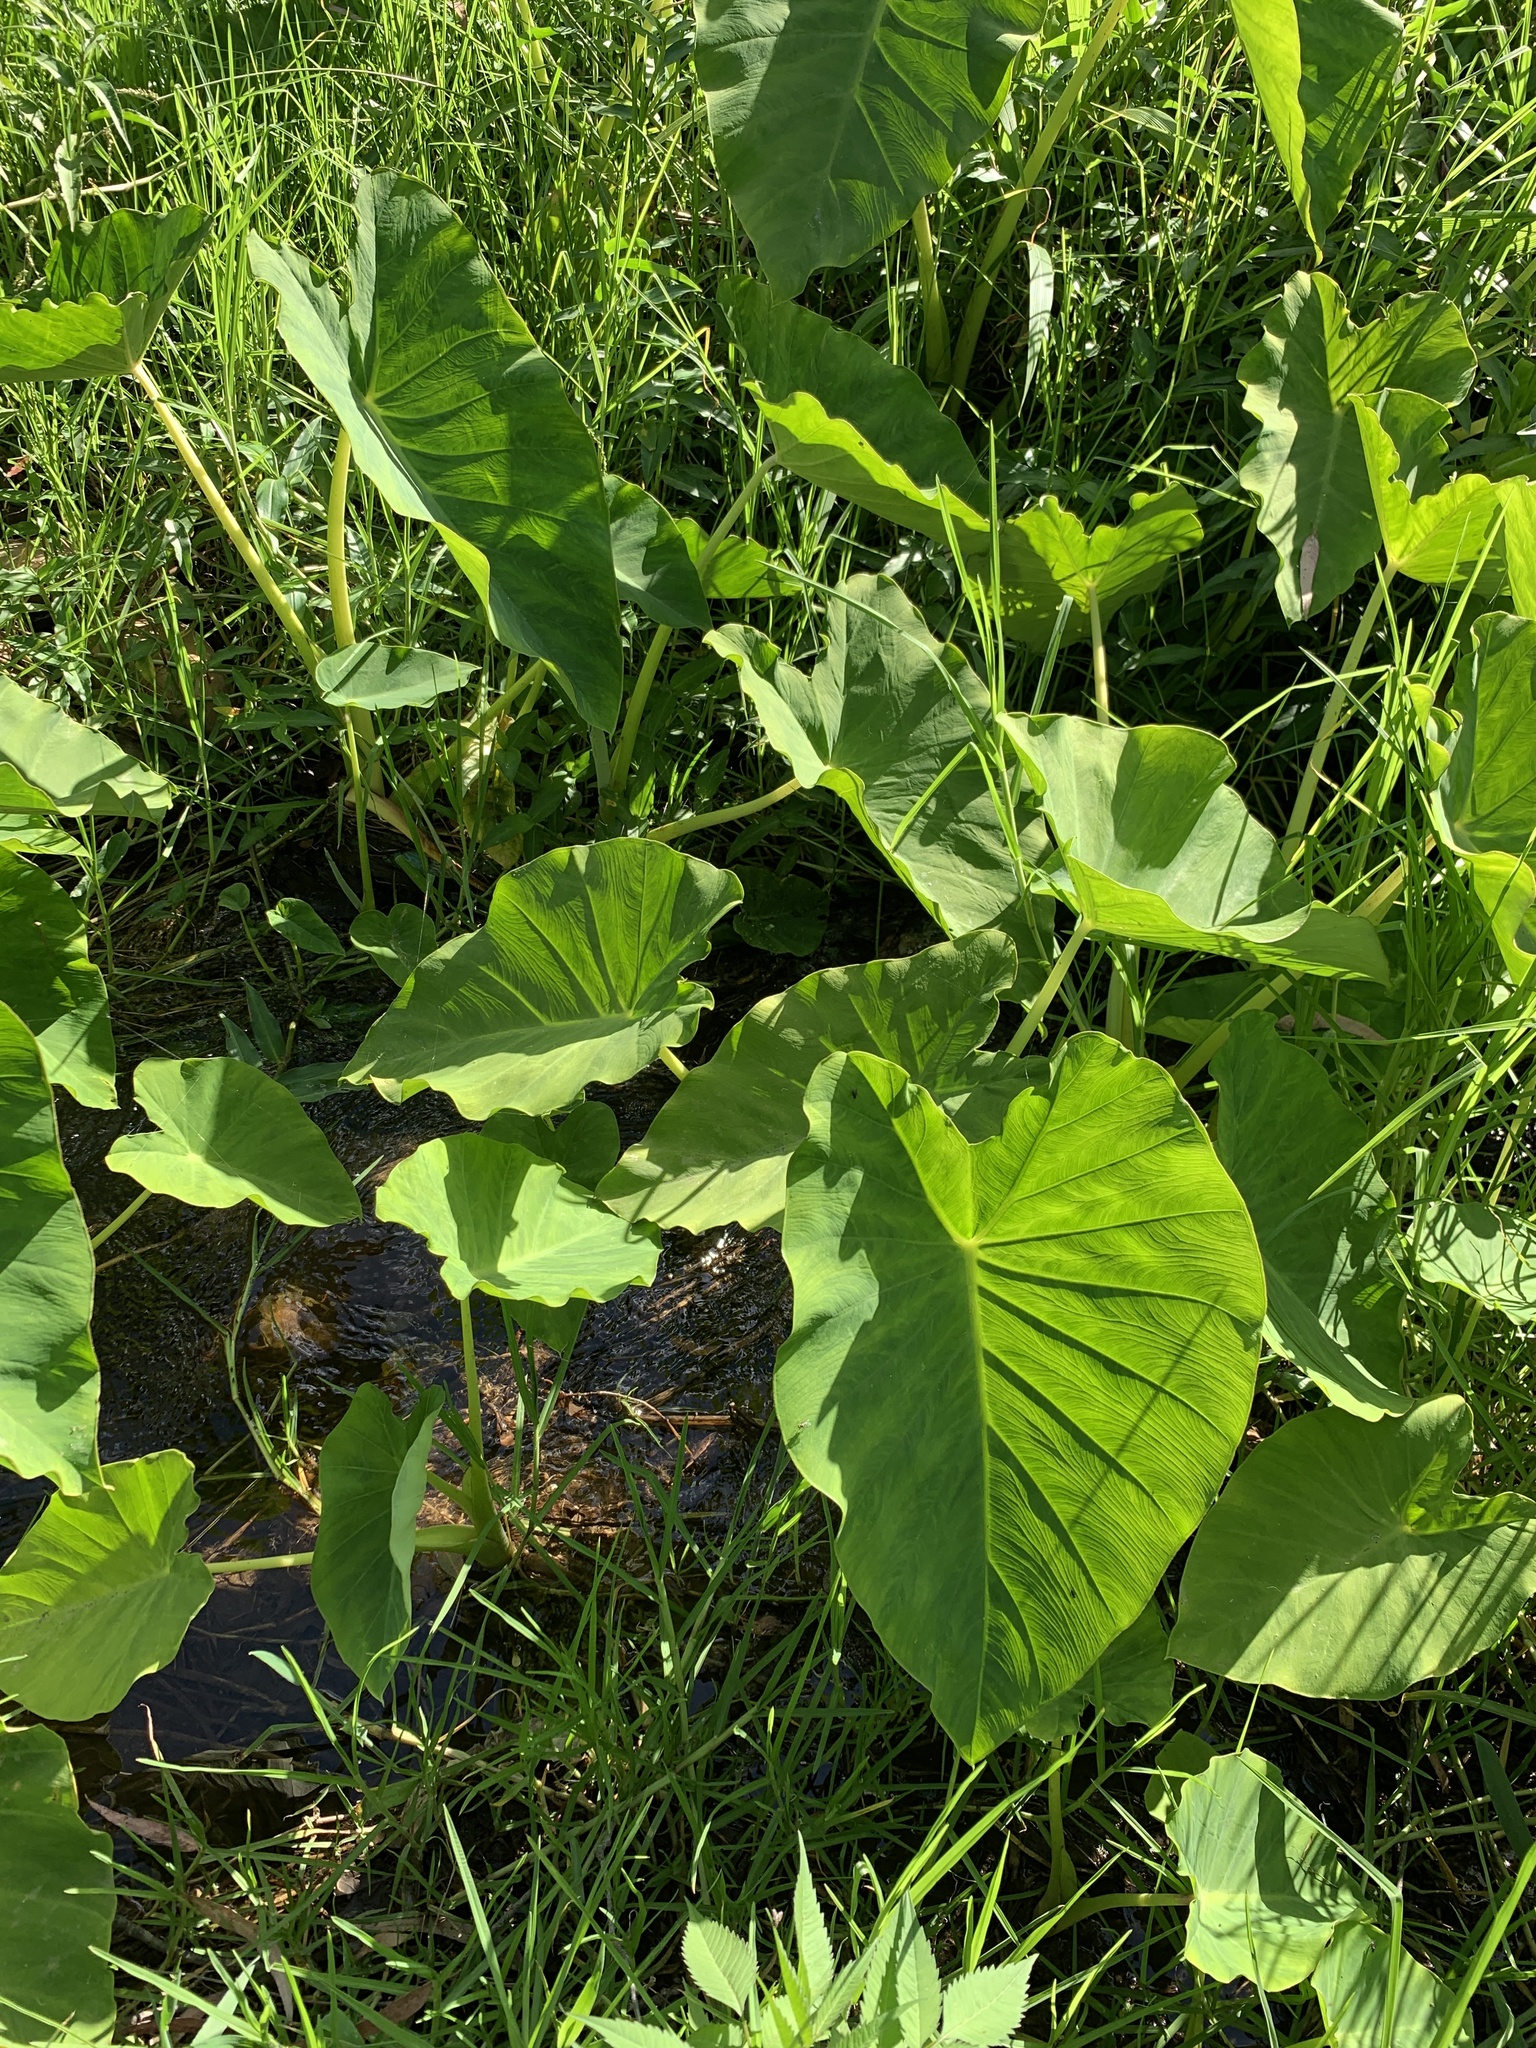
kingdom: Plantae
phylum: Tracheophyta
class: Liliopsida
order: Alismatales
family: Araceae
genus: Colocasia
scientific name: Colocasia esculenta
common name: Taro
